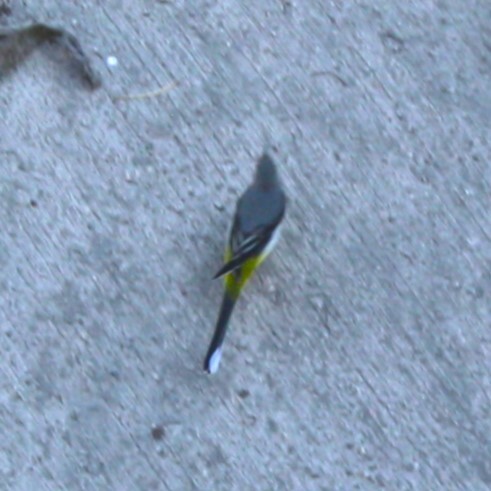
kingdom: Animalia
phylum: Chordata
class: Aves
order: Passeriformes
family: Motacillidae
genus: Motacilla
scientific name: Motacilla cinerea
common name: Grey wagtail
